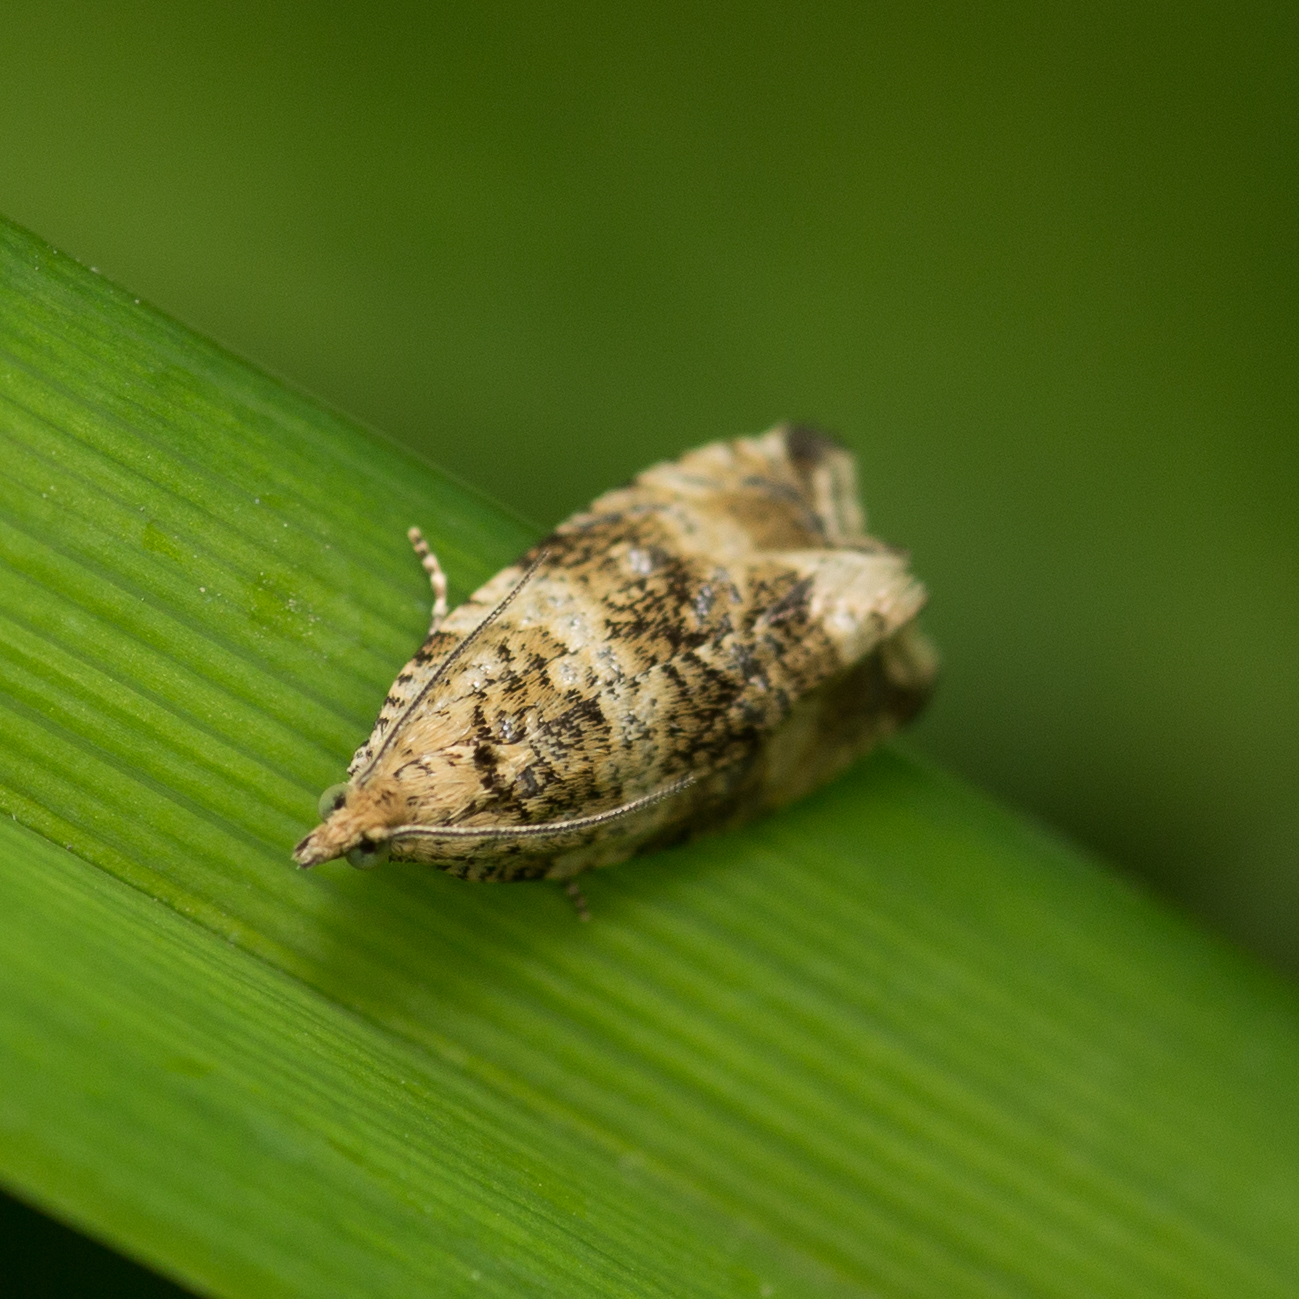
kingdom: Animalia
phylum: Arthropoda
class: Insecta
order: Lepidoptera
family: Tortricidae
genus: Syricoris
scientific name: Syricoris lacunana
